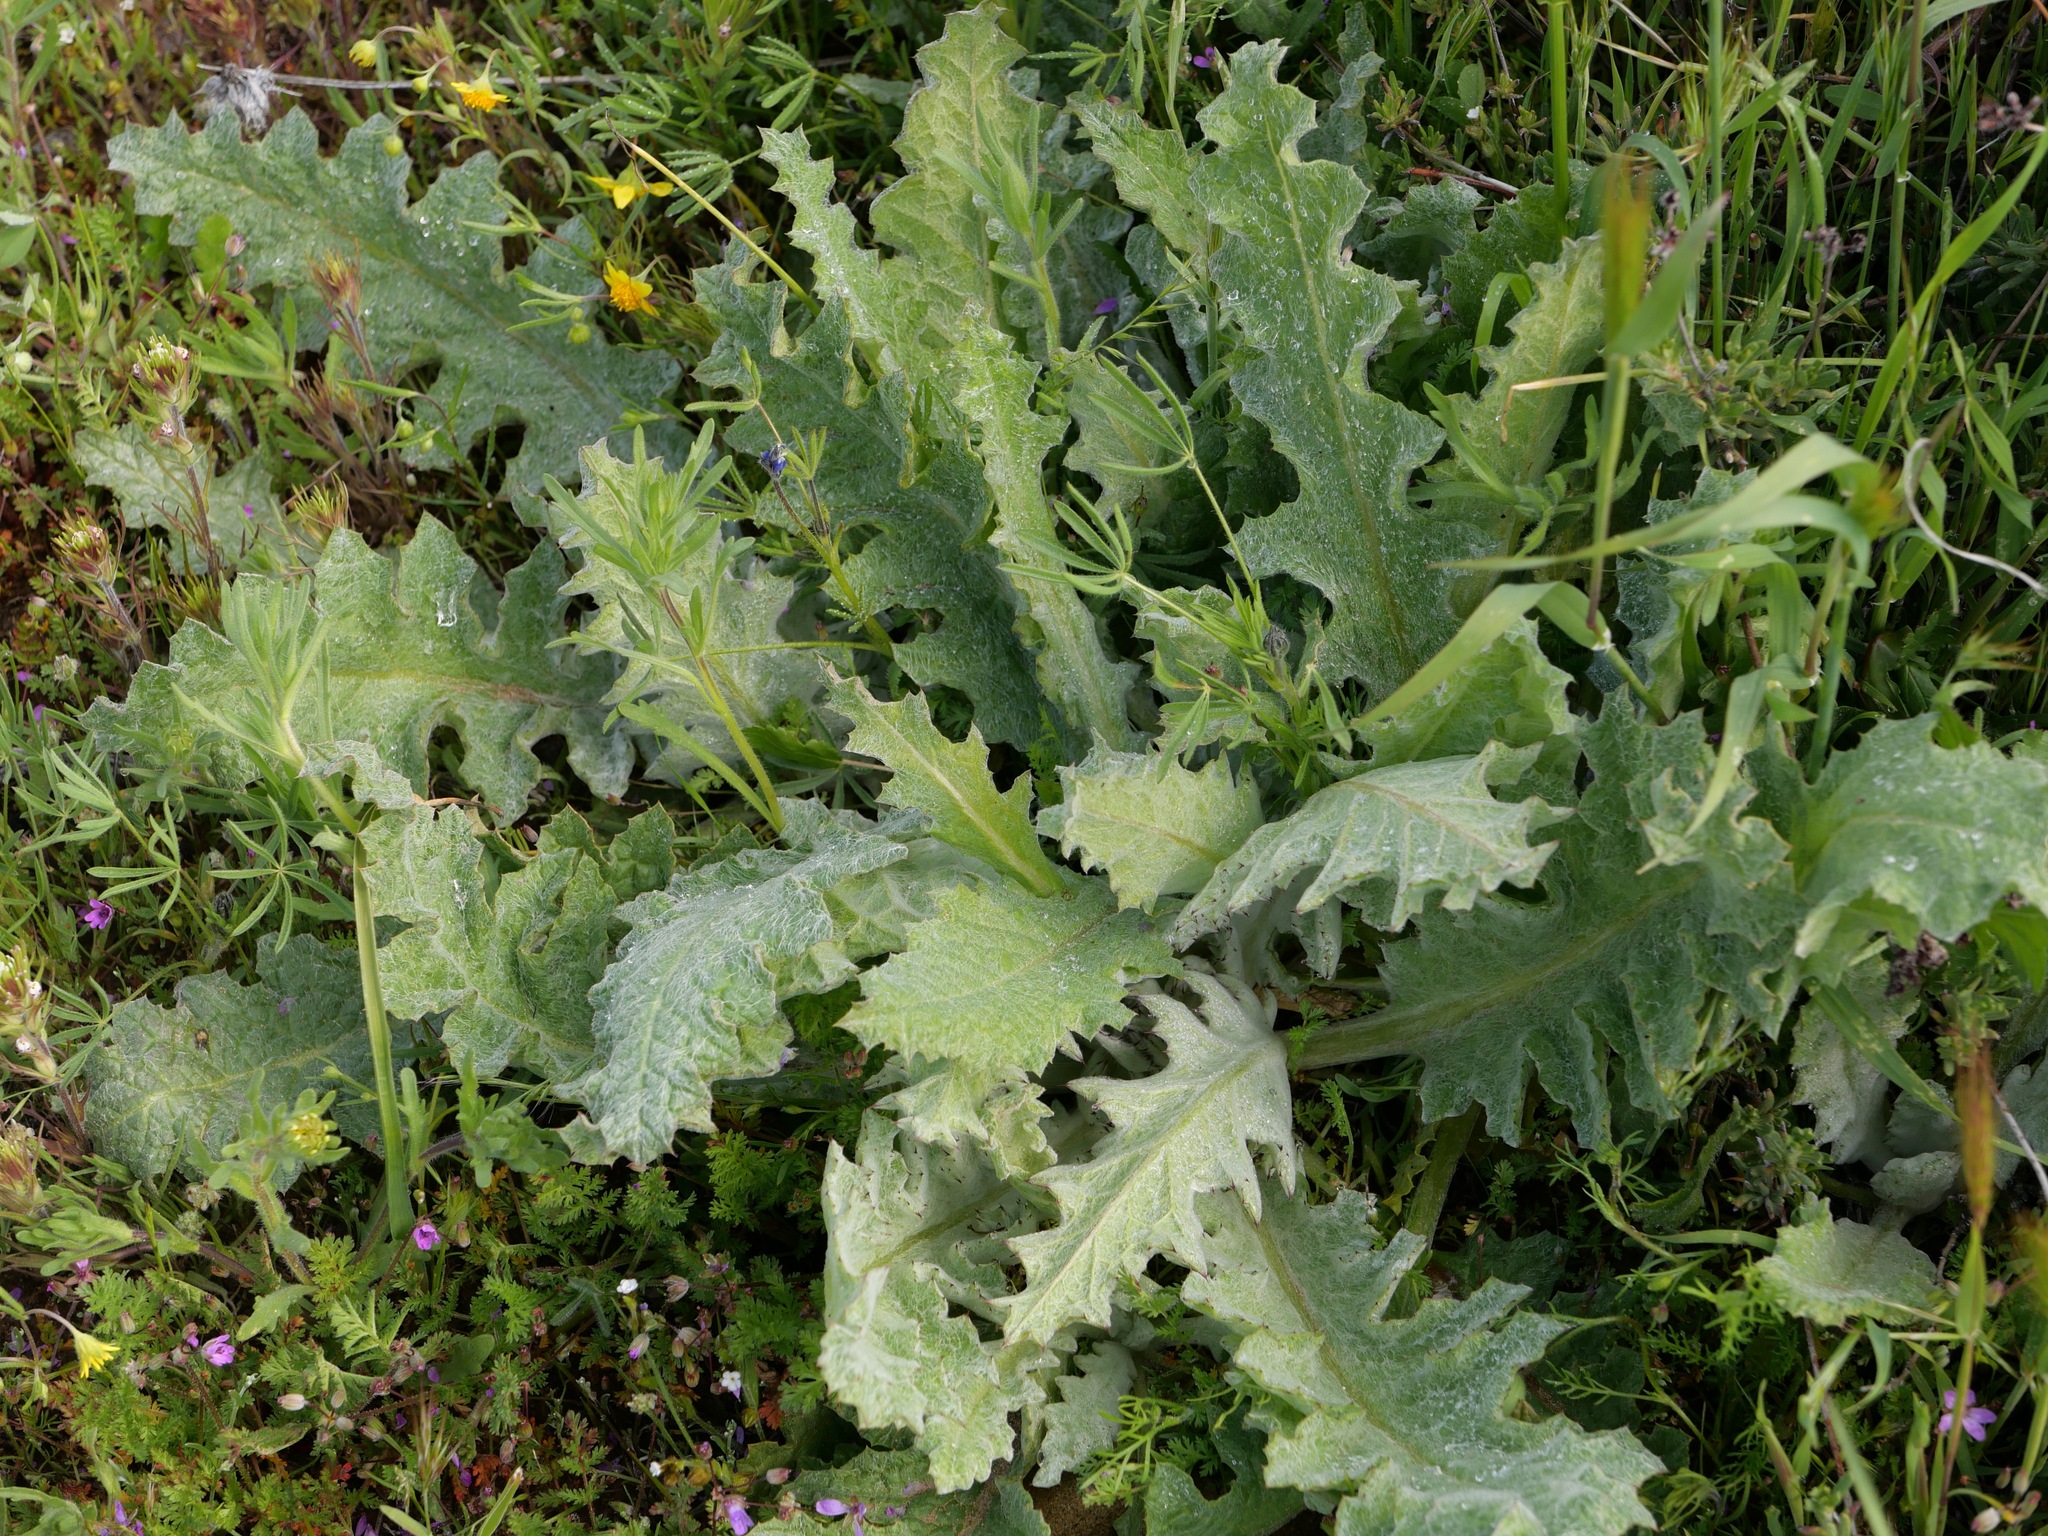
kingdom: Plantae
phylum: Tracheophyta
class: Magnoliopsida
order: Lamiales
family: Lamiaceae
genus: Salvia
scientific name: Salvia carduacea
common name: Thistle sage
